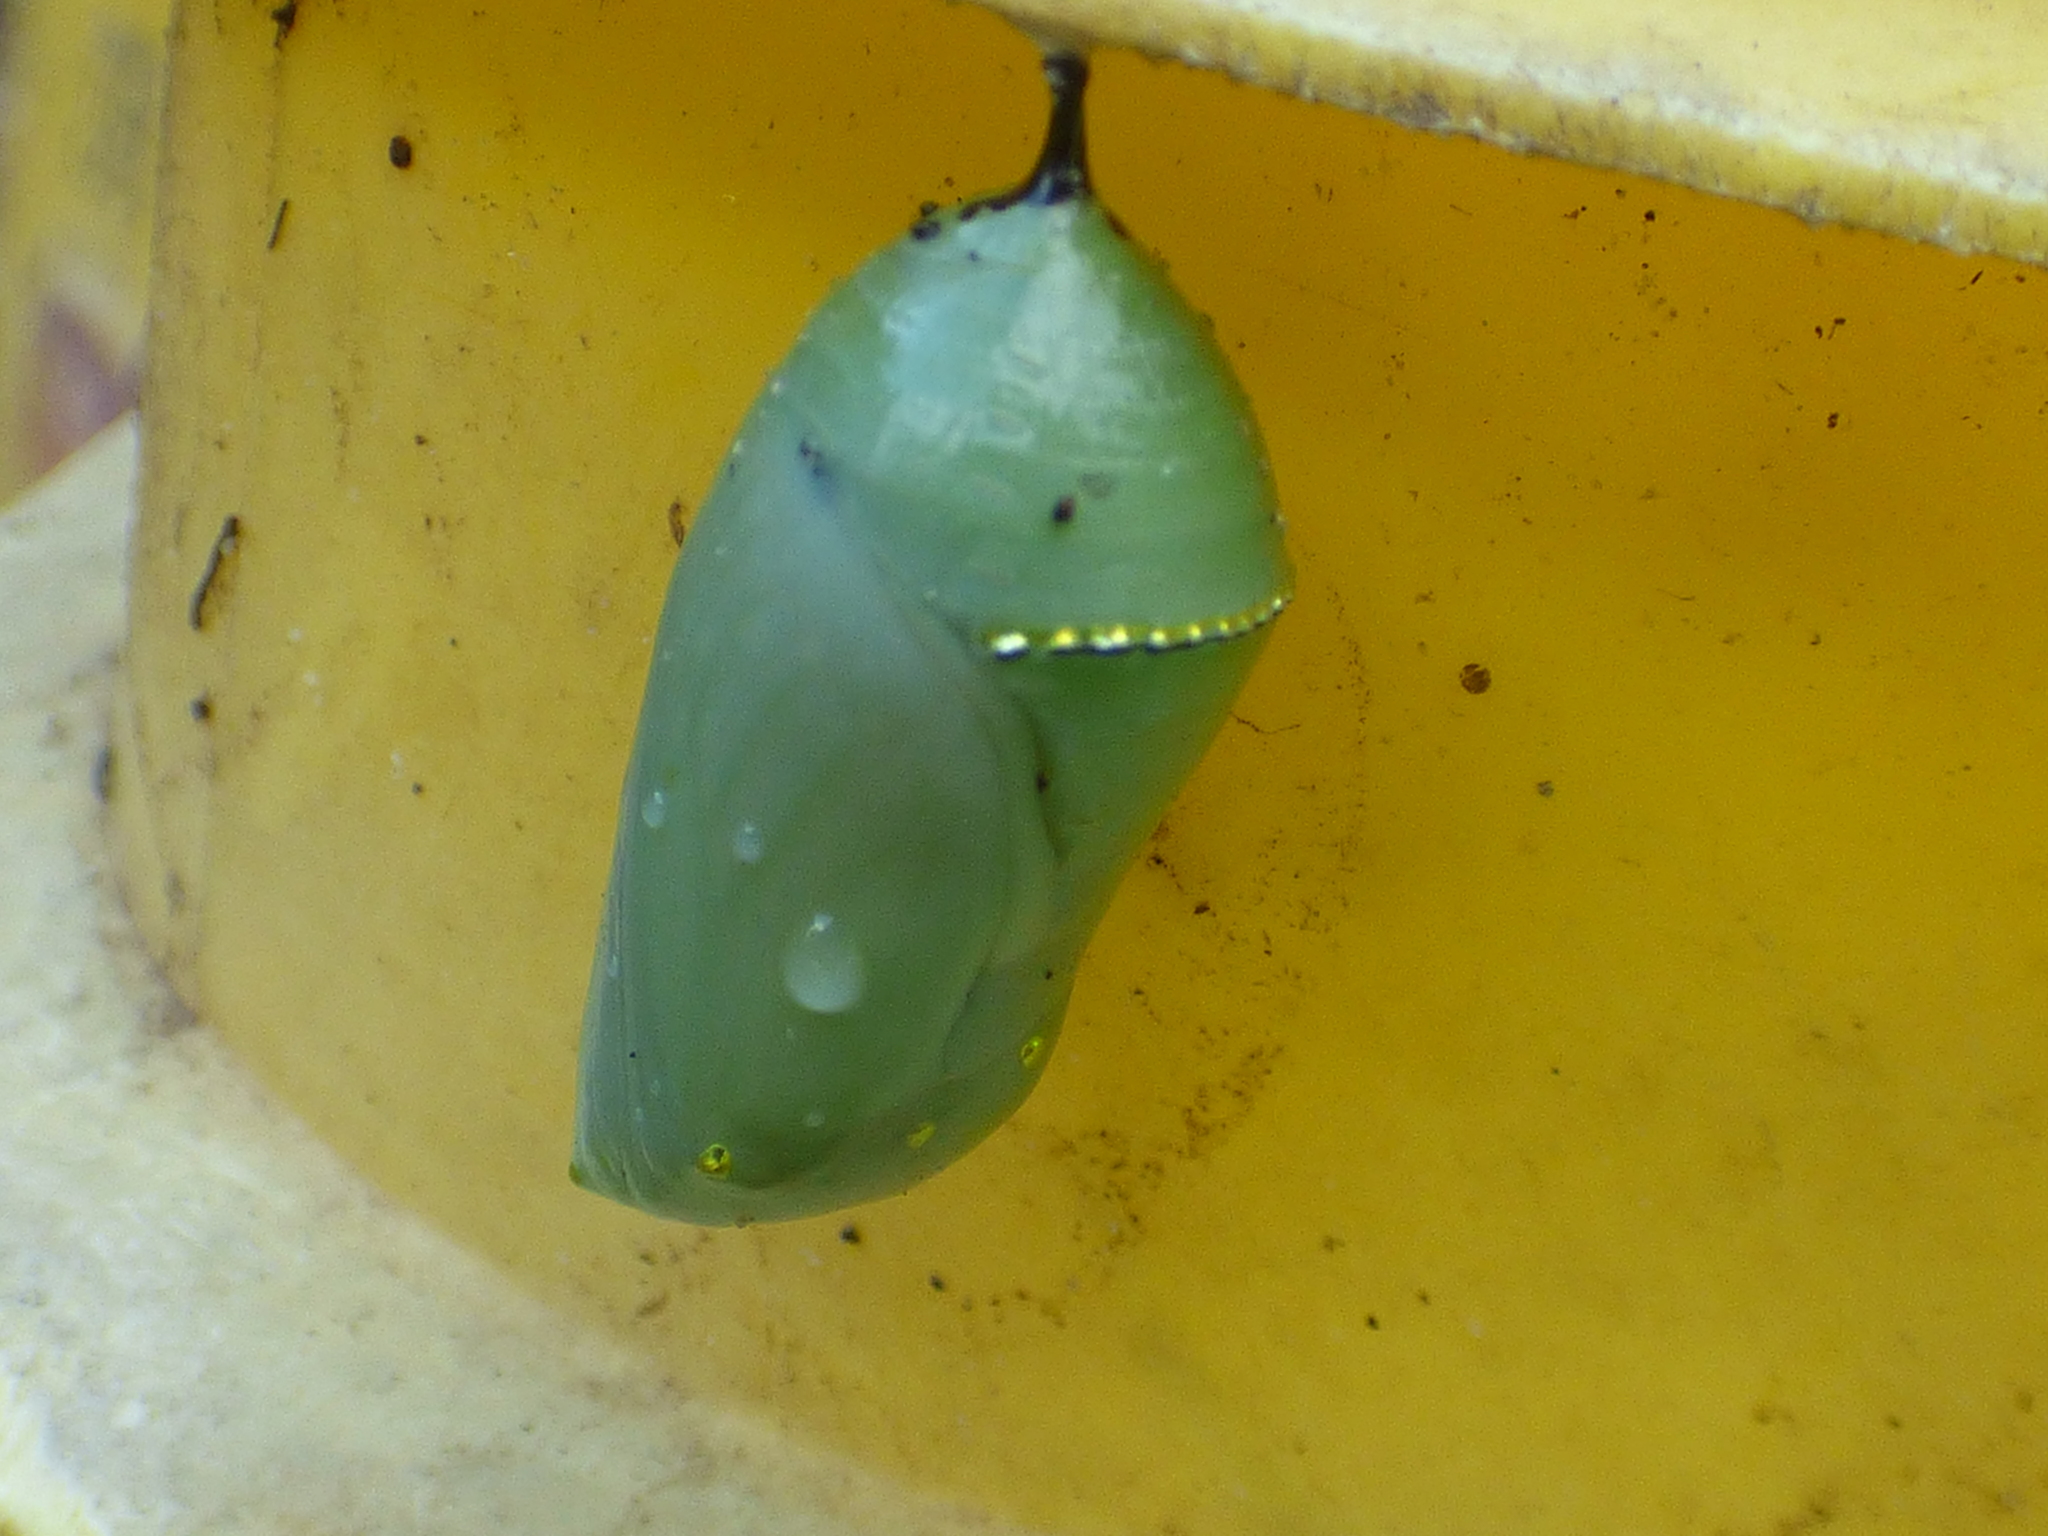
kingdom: Animalia
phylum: Arthropoda
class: Insecta
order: Lepidoptera
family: Nymphalidae
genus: Danaus
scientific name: Danaus plexippus
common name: Monarch
